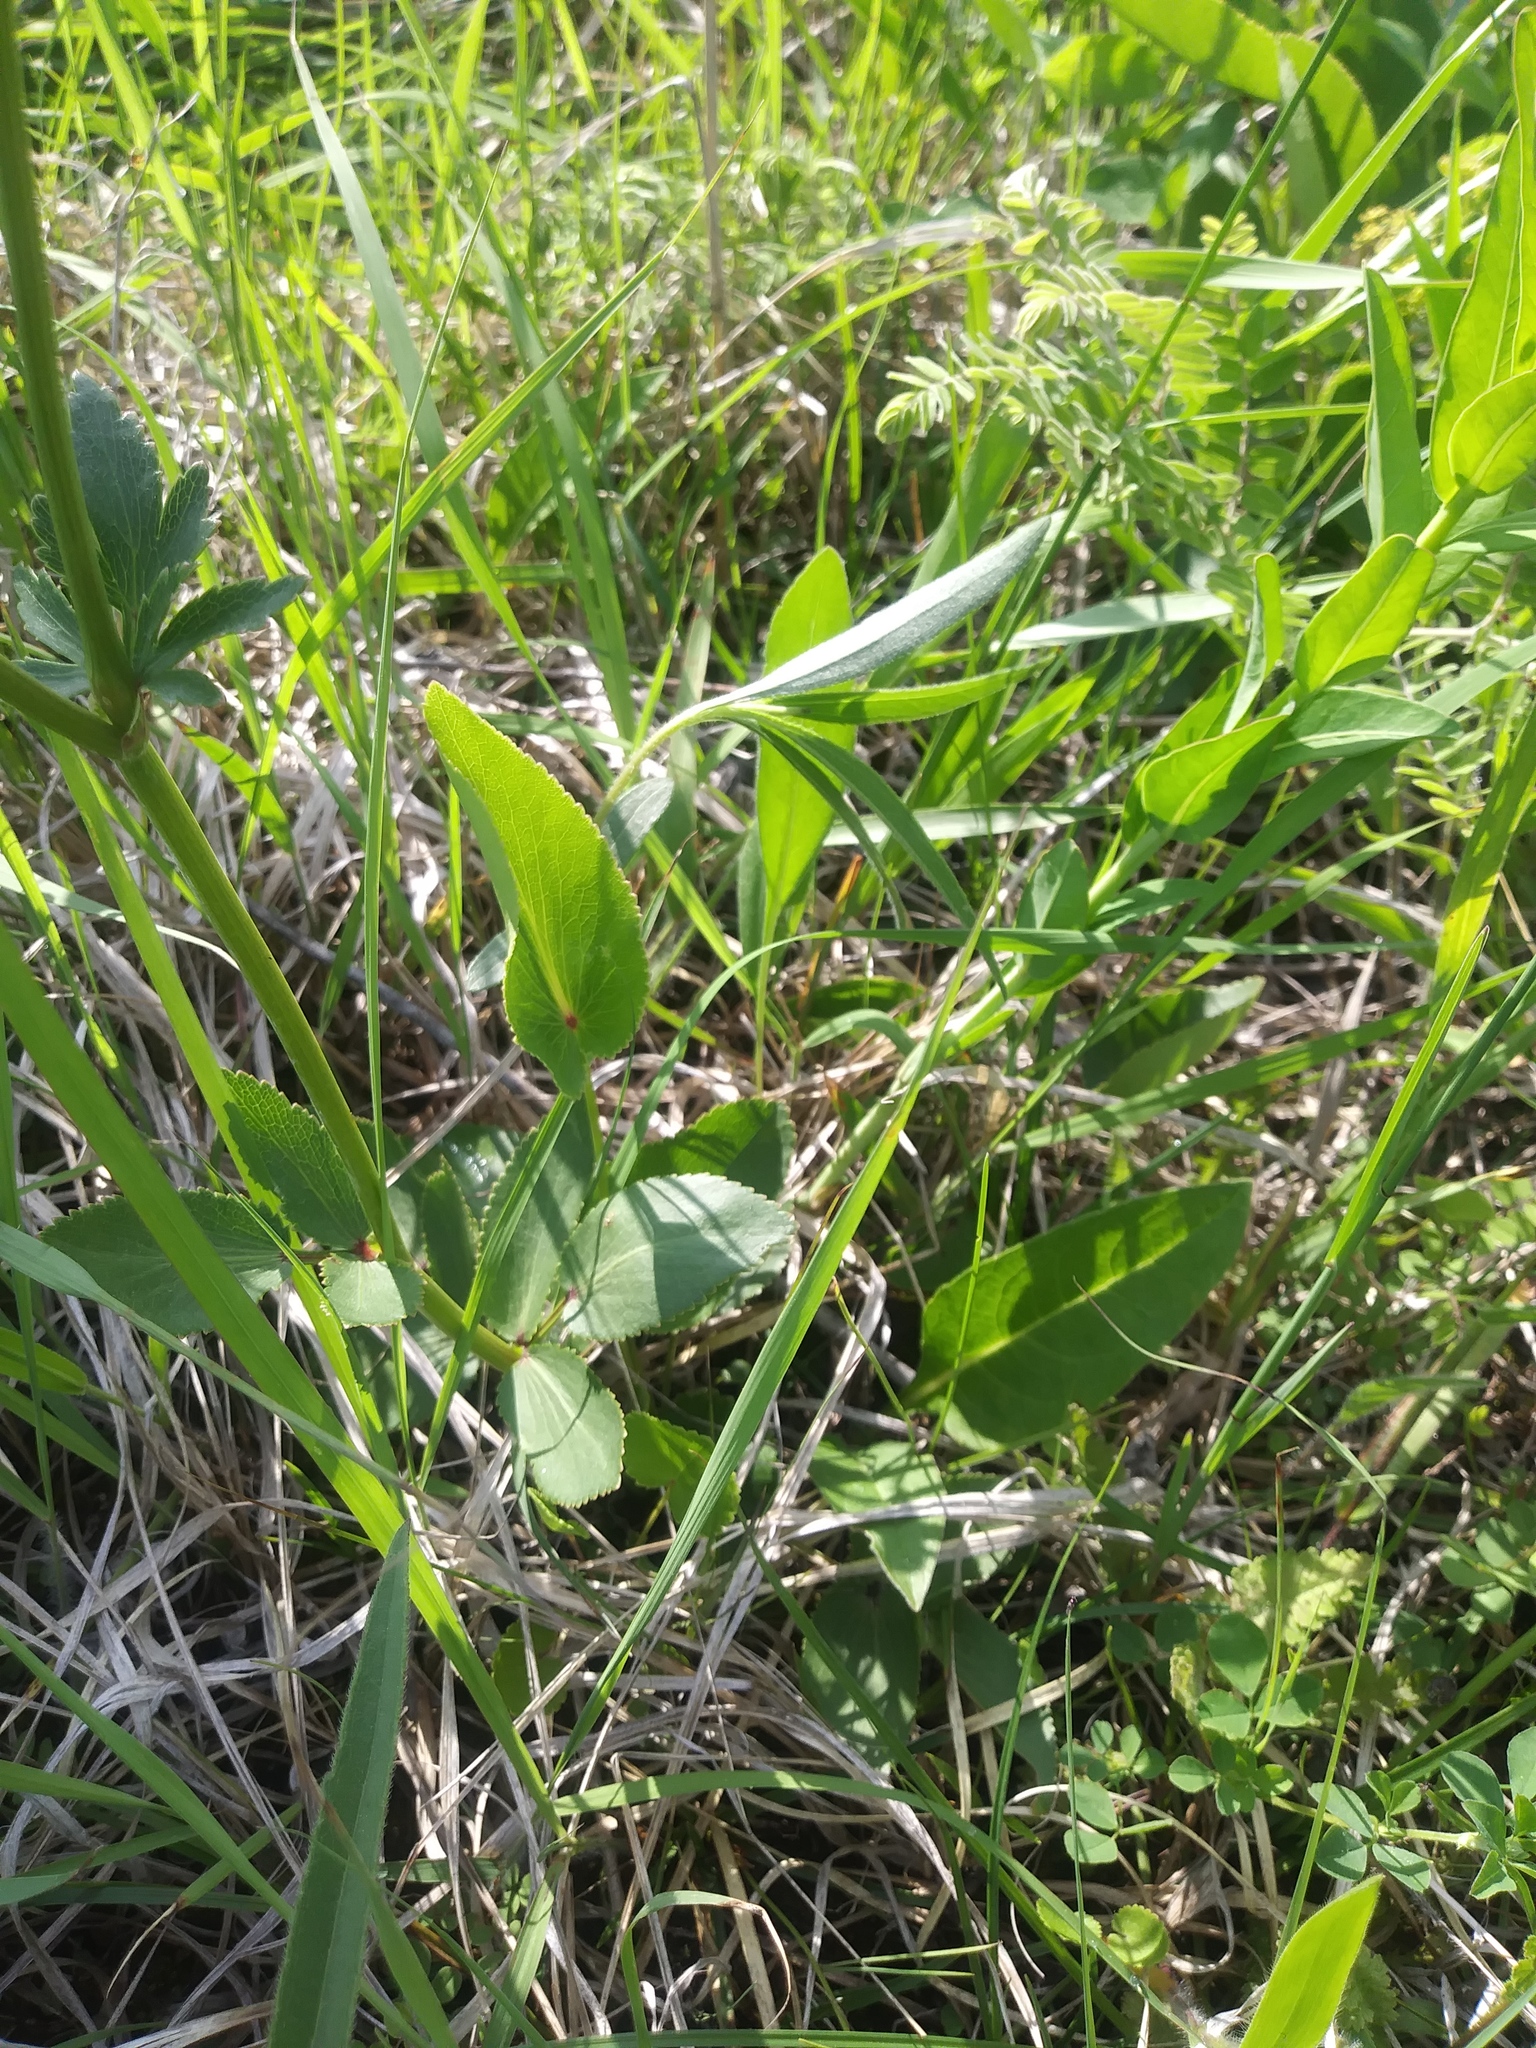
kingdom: Plantae
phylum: Tracheophyta
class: Magnoliopsida
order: Apiales
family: Apiaceae
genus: Zizia
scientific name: Zizia aptera
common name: Heart-leaved alexanders
